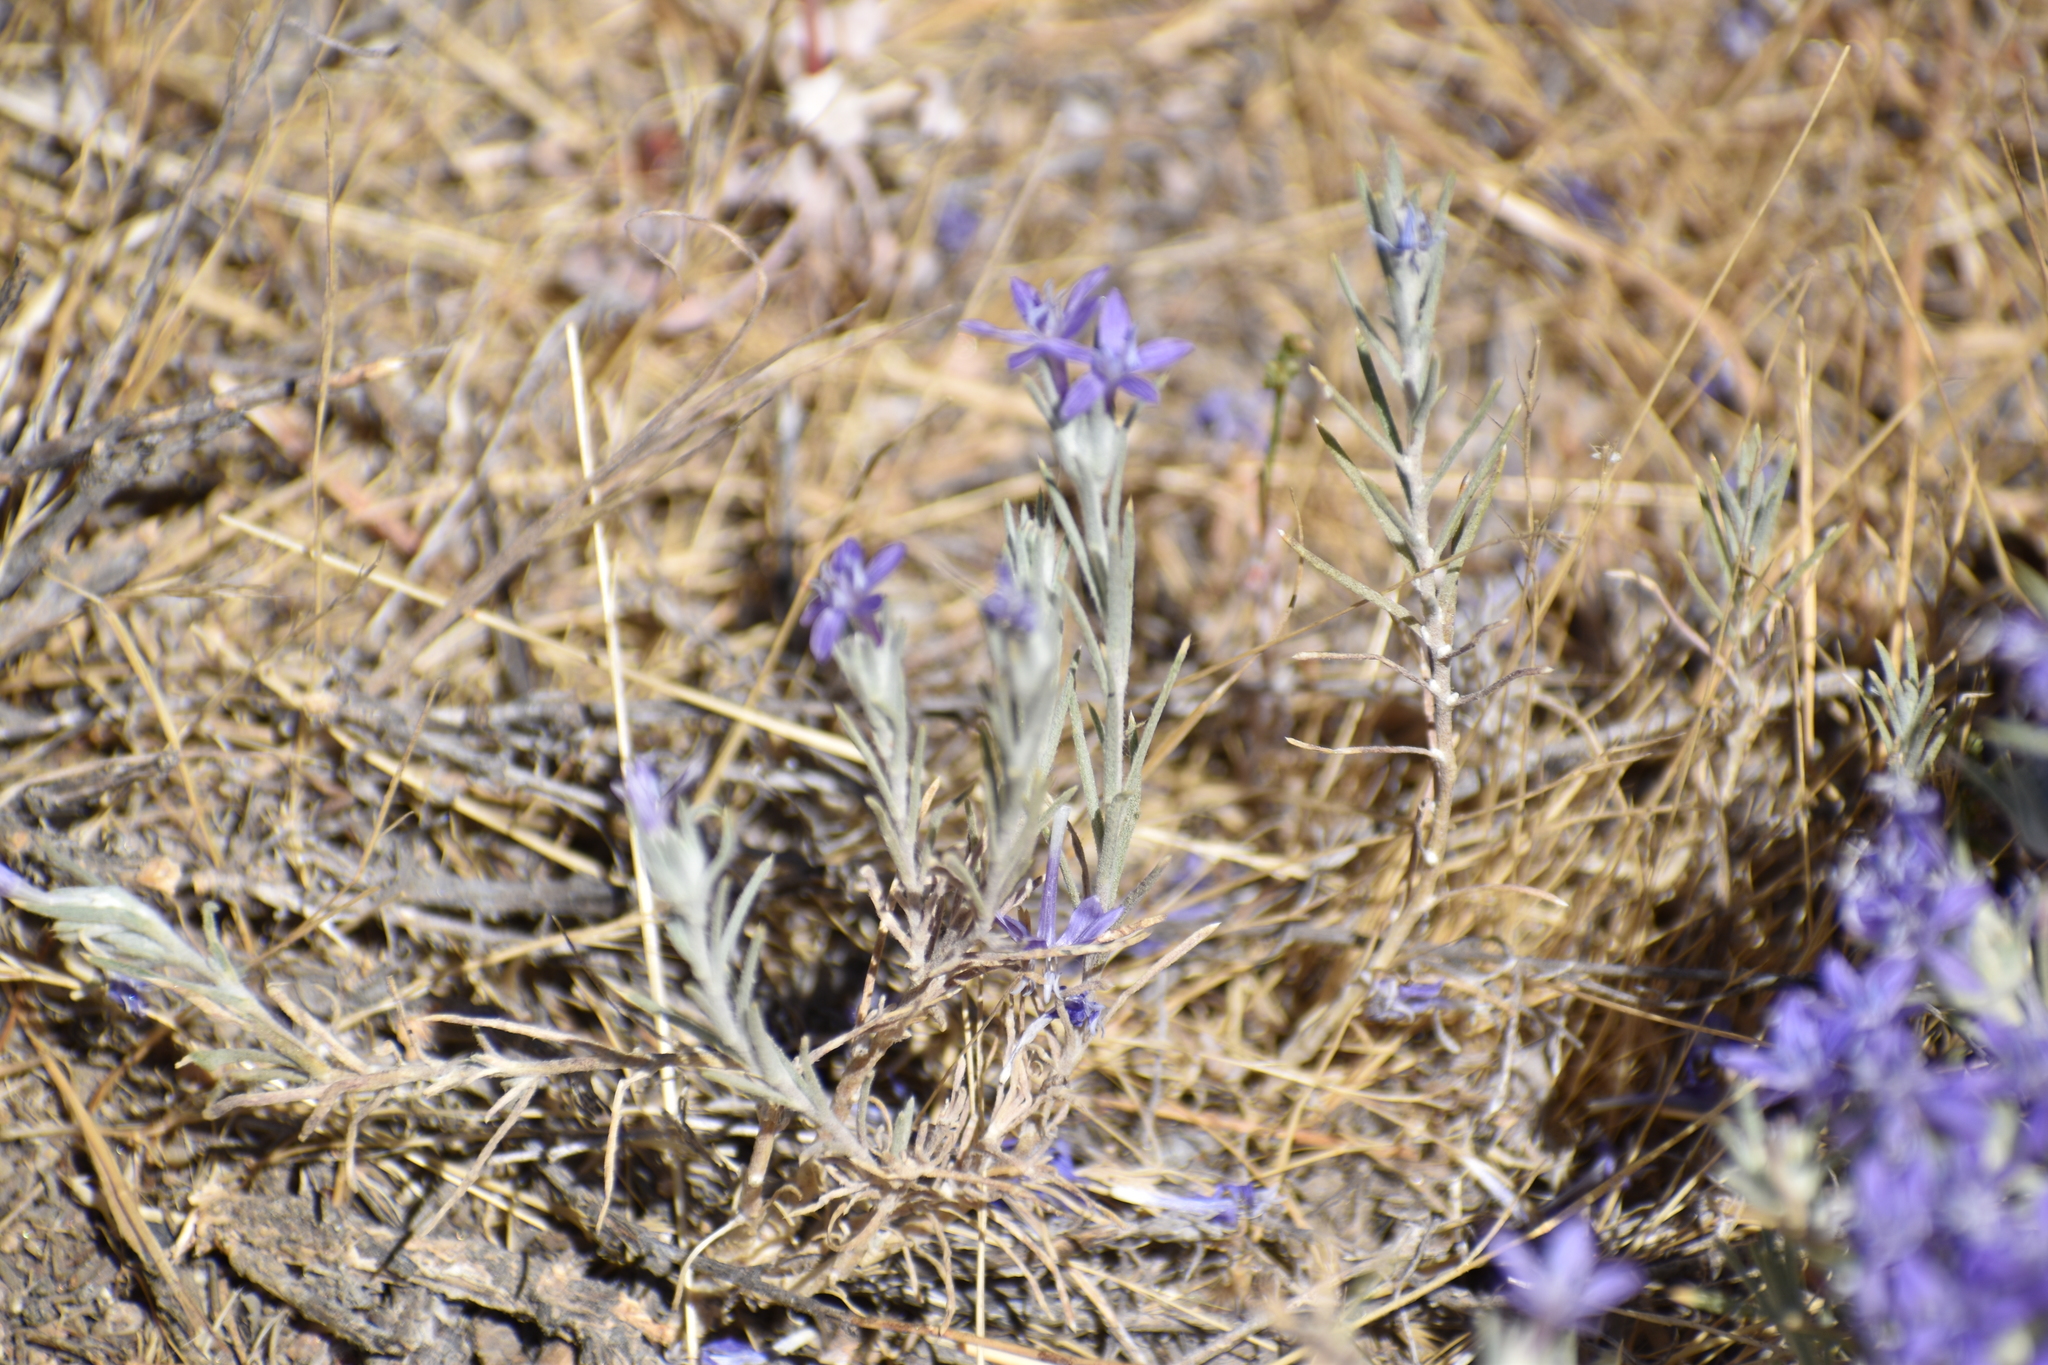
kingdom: Plantae
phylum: Tracheophyta
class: Magnoliopsida
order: Ericales
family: Polemoniaceae
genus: Eriastrum
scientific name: Eriastrum densifolium
